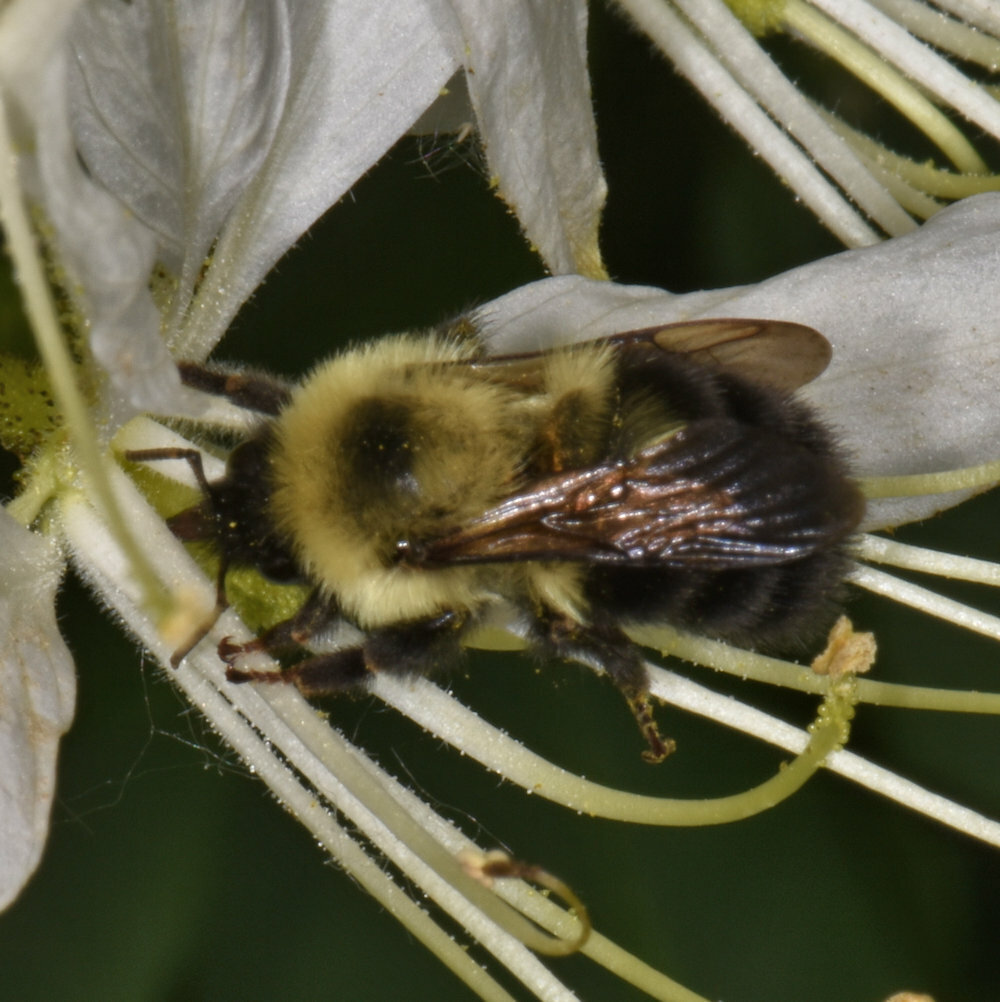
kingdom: Animalia
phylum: Arthropoda
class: Insecta
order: Hymenoptera
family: Apidae
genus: Bombus
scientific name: Bombus bimaculatus
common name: Two-spotted bumble bee
